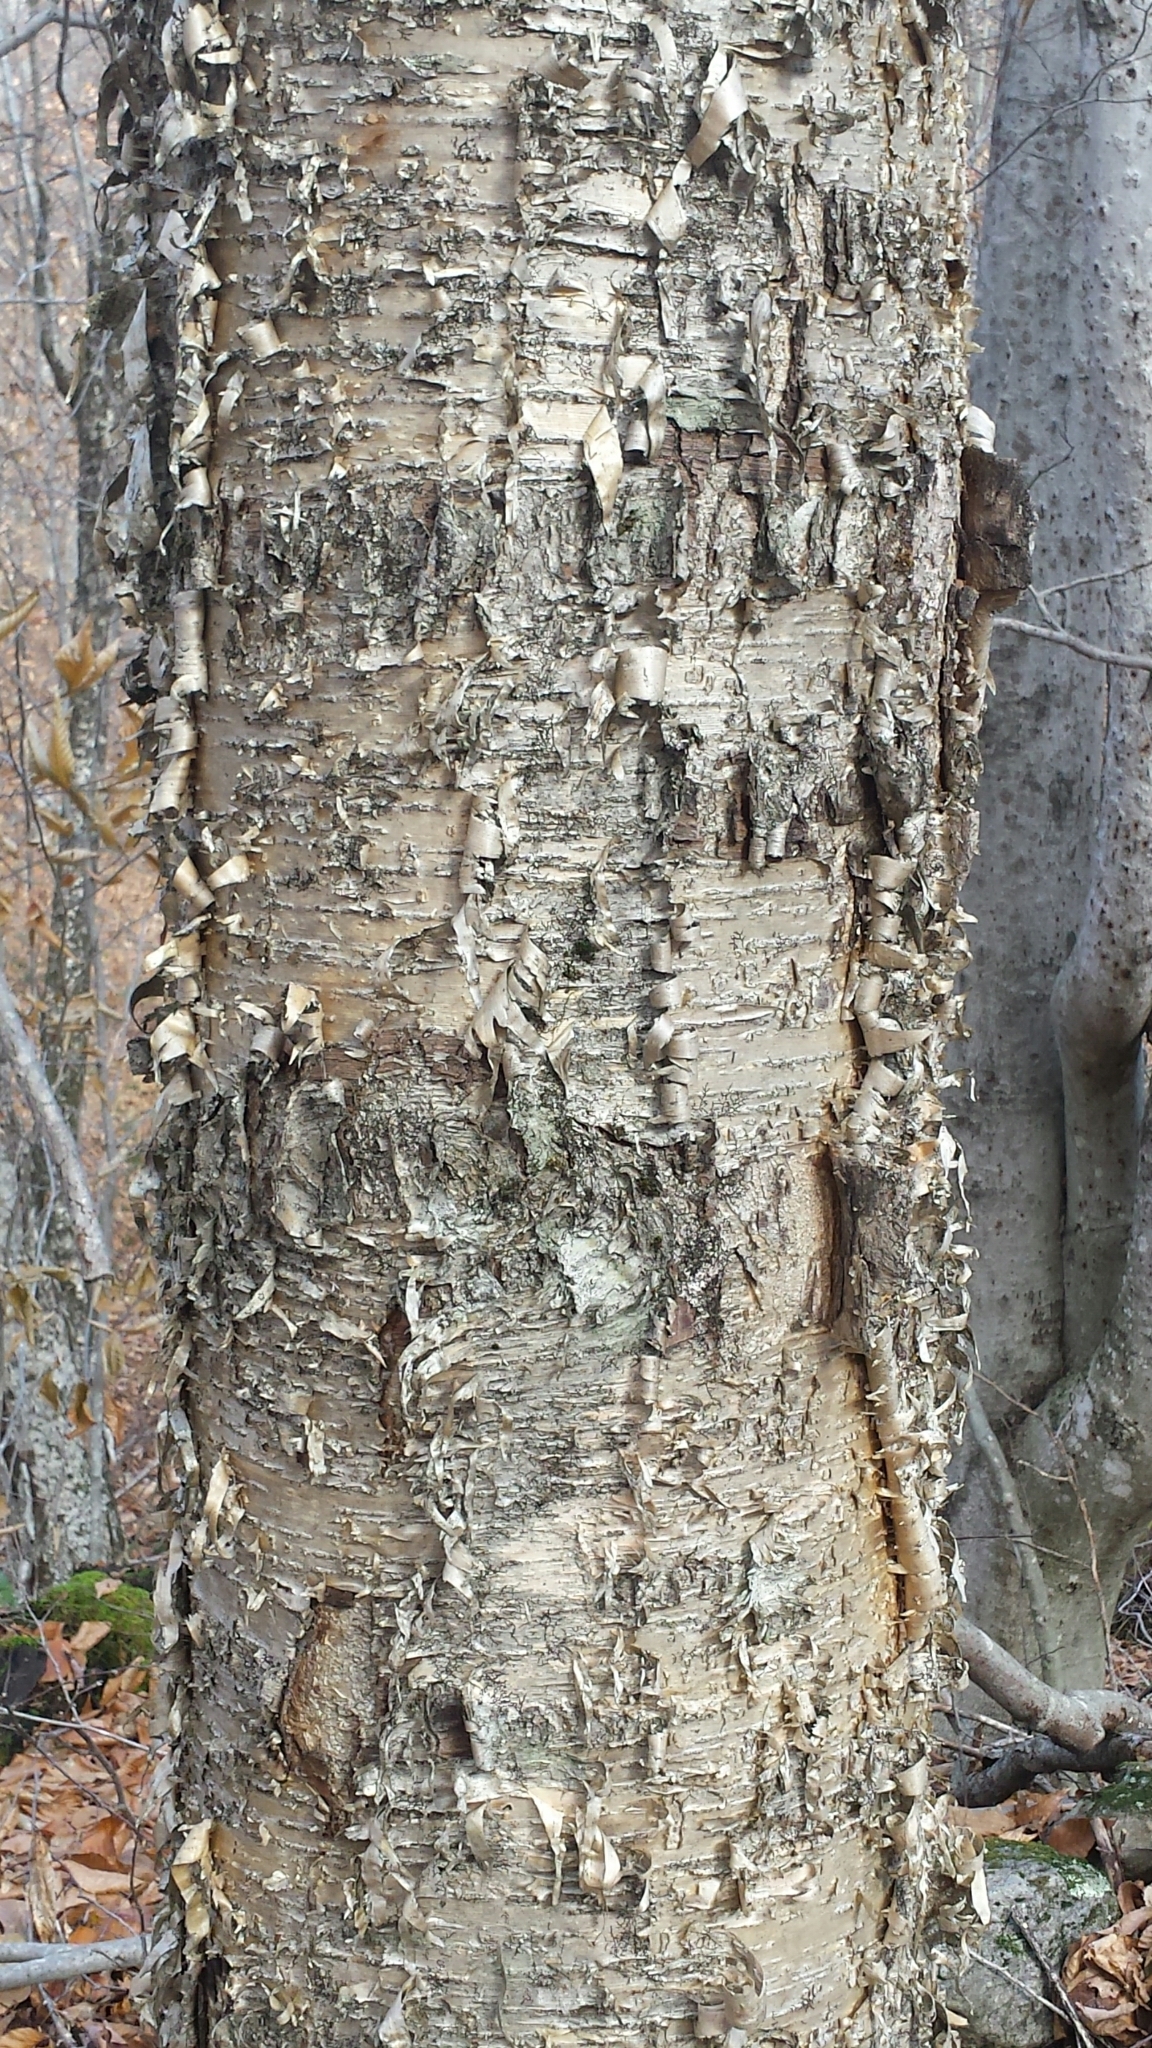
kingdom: Plantae
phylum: Tracheophyta
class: Magnoliopsida
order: Fagales
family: Betulaceae
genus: Betula
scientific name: Betula alleghaniensis
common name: Yellow birch
